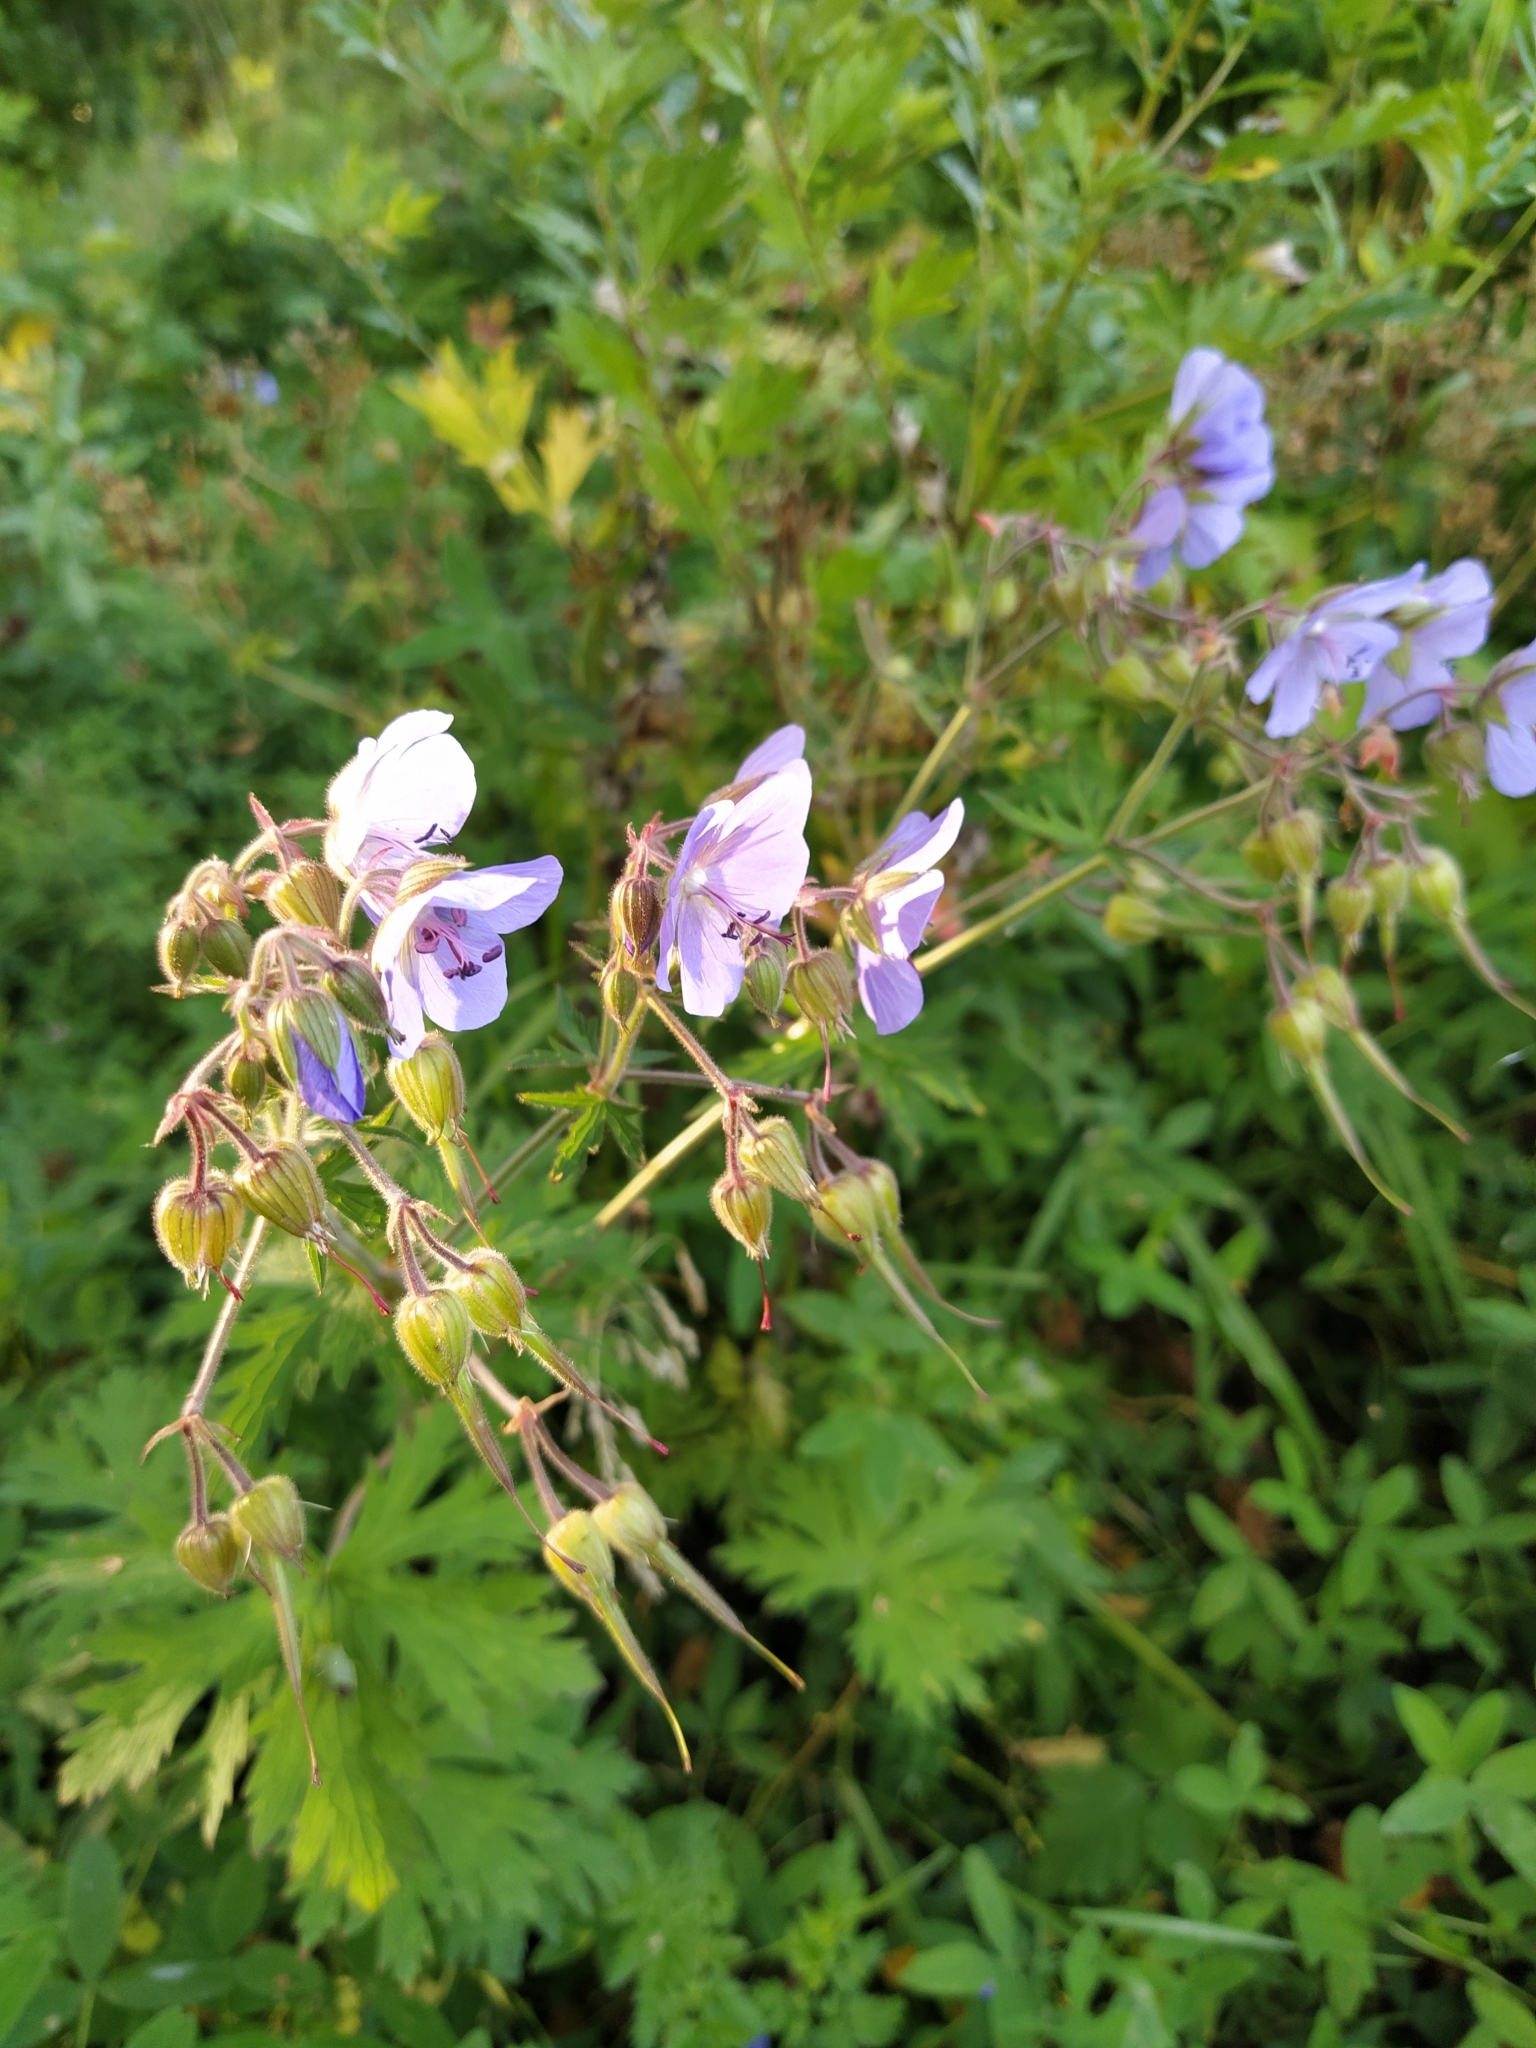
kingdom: Plantae
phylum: Tracheophyta
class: Magnoliopsida
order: Geraniales
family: Geraniaceae
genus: Geranium
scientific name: Geranium pratense
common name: Meadow crane's-bill
